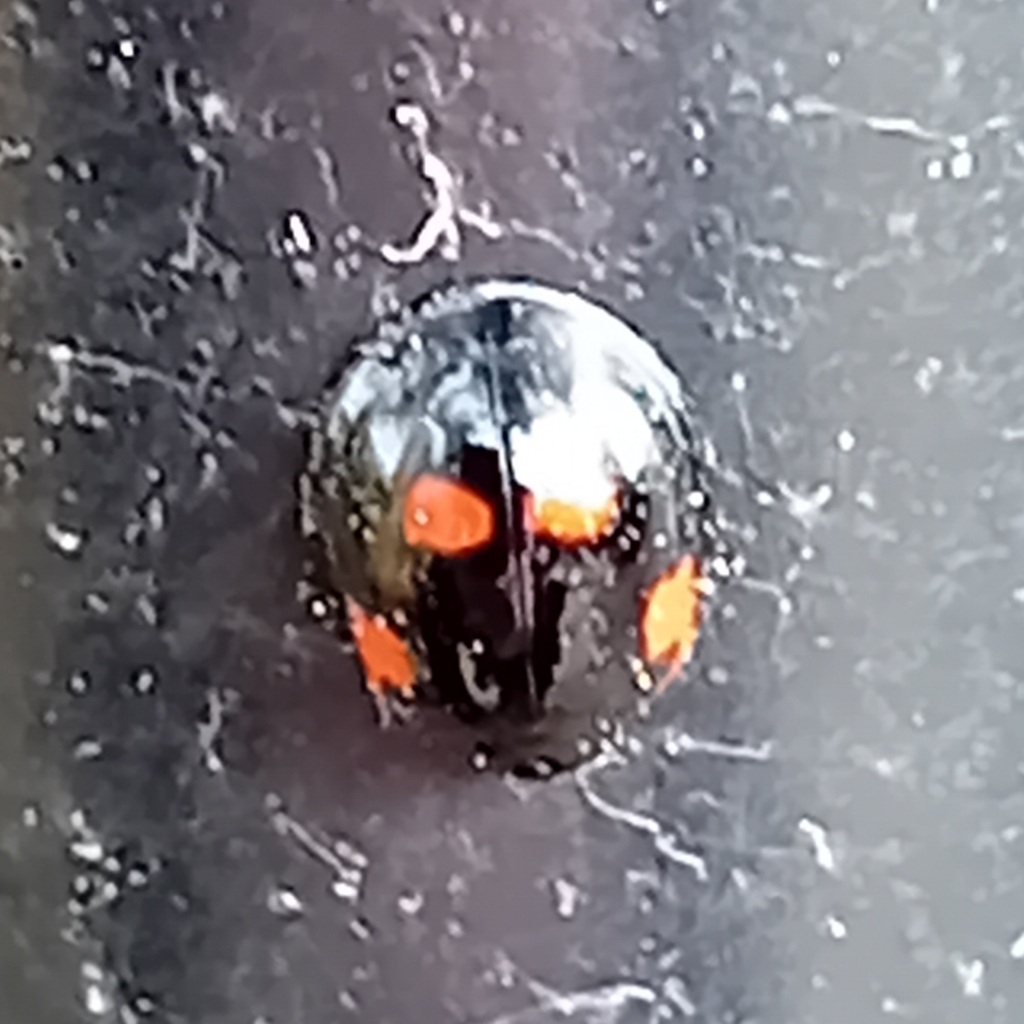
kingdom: Animalia
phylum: Arthropoda
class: Insecta
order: Coleoptera
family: Coccinellidae
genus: Brumus
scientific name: Brumus quadripustulatus
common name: Ladybird beetle
